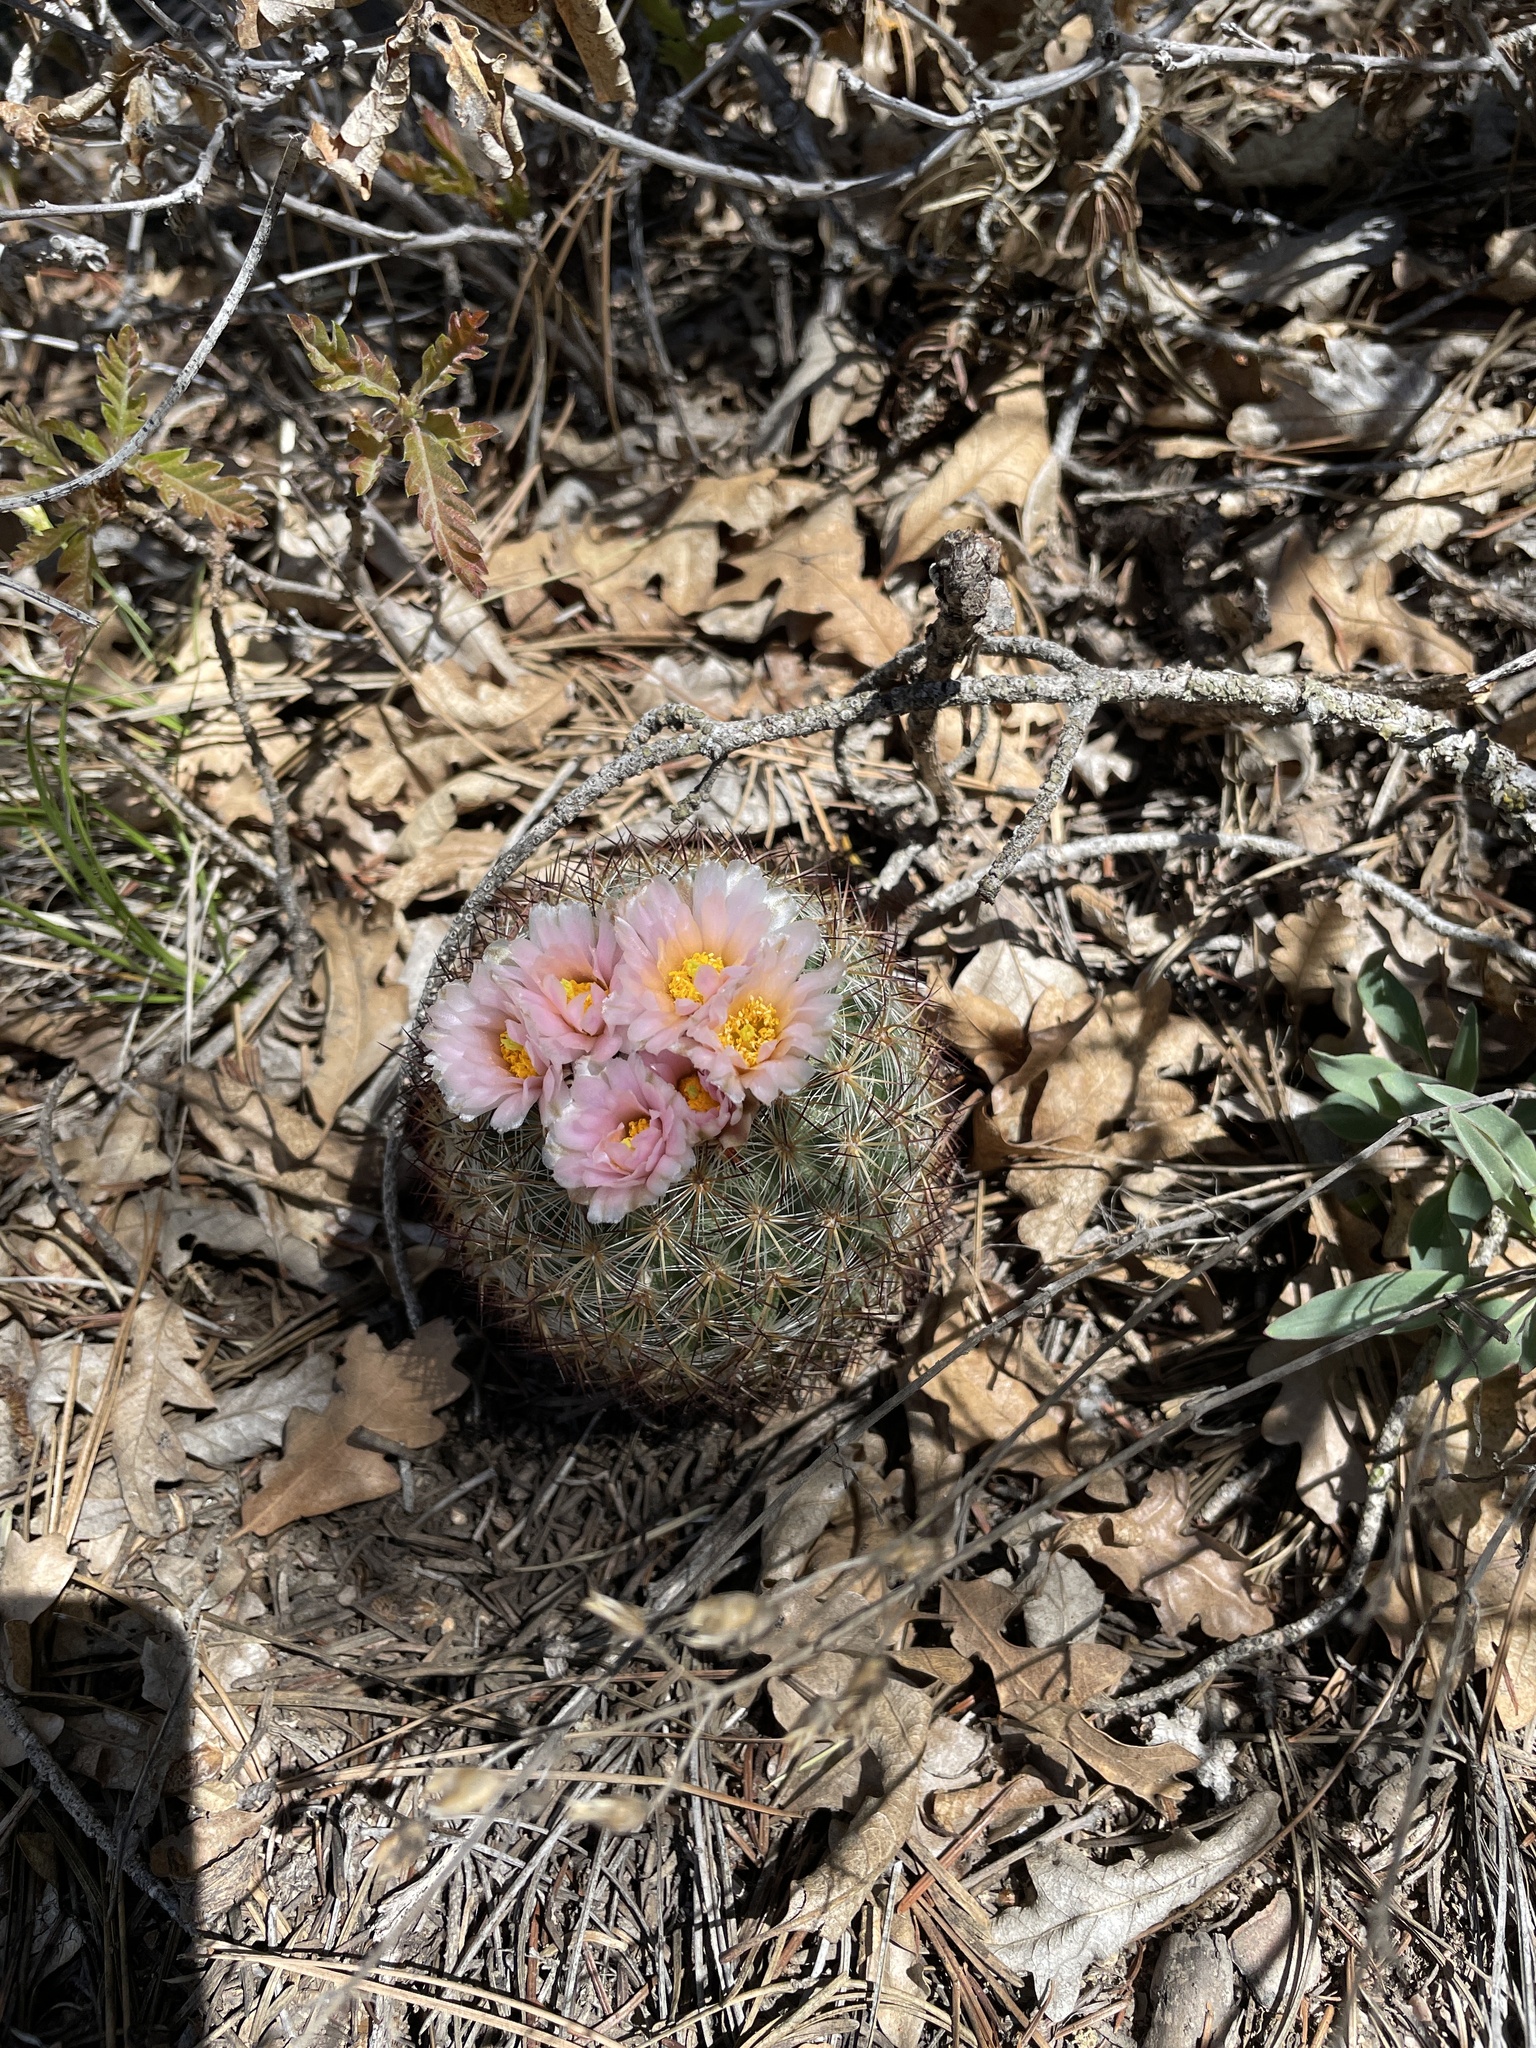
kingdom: Plantae
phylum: Tracheophyta
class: Magnoliopsida
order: Caryophyllales
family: Cactaceae
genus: Pediocactus
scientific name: Pediocactus simpsonii
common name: Simpson's hedgehog cactus
